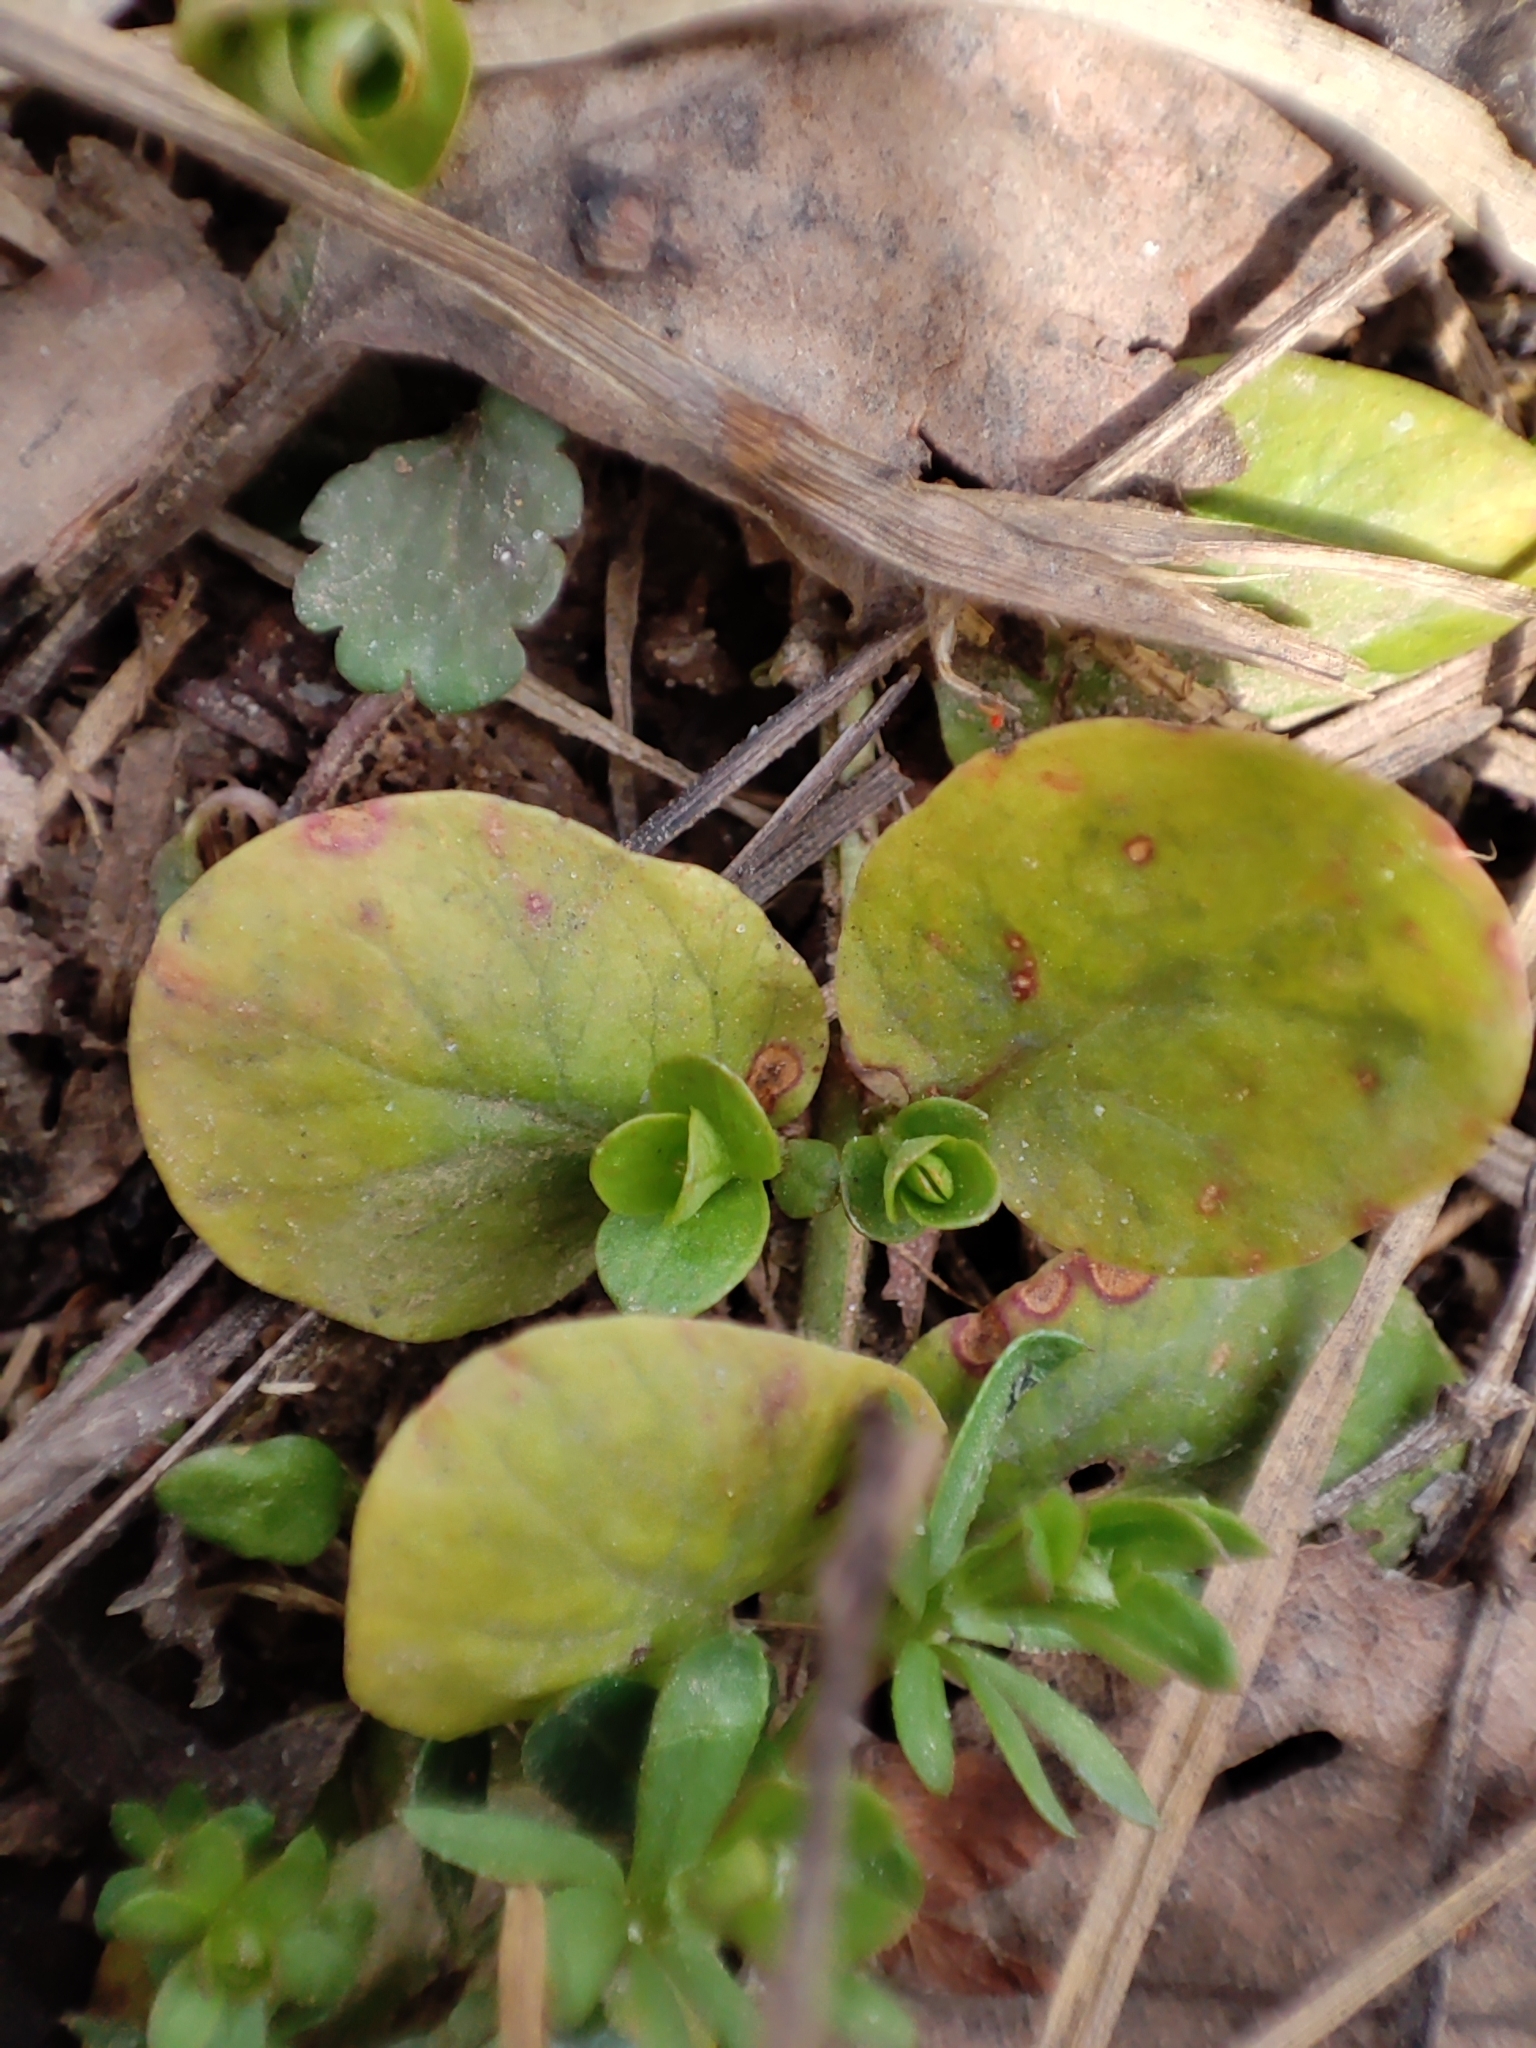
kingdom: Plantae
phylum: Tracheophyta
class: Magnoliopsida
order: Ericales
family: Primulaceae
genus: Lysimachia
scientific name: Lysimachia nummularia
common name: Moneywort
